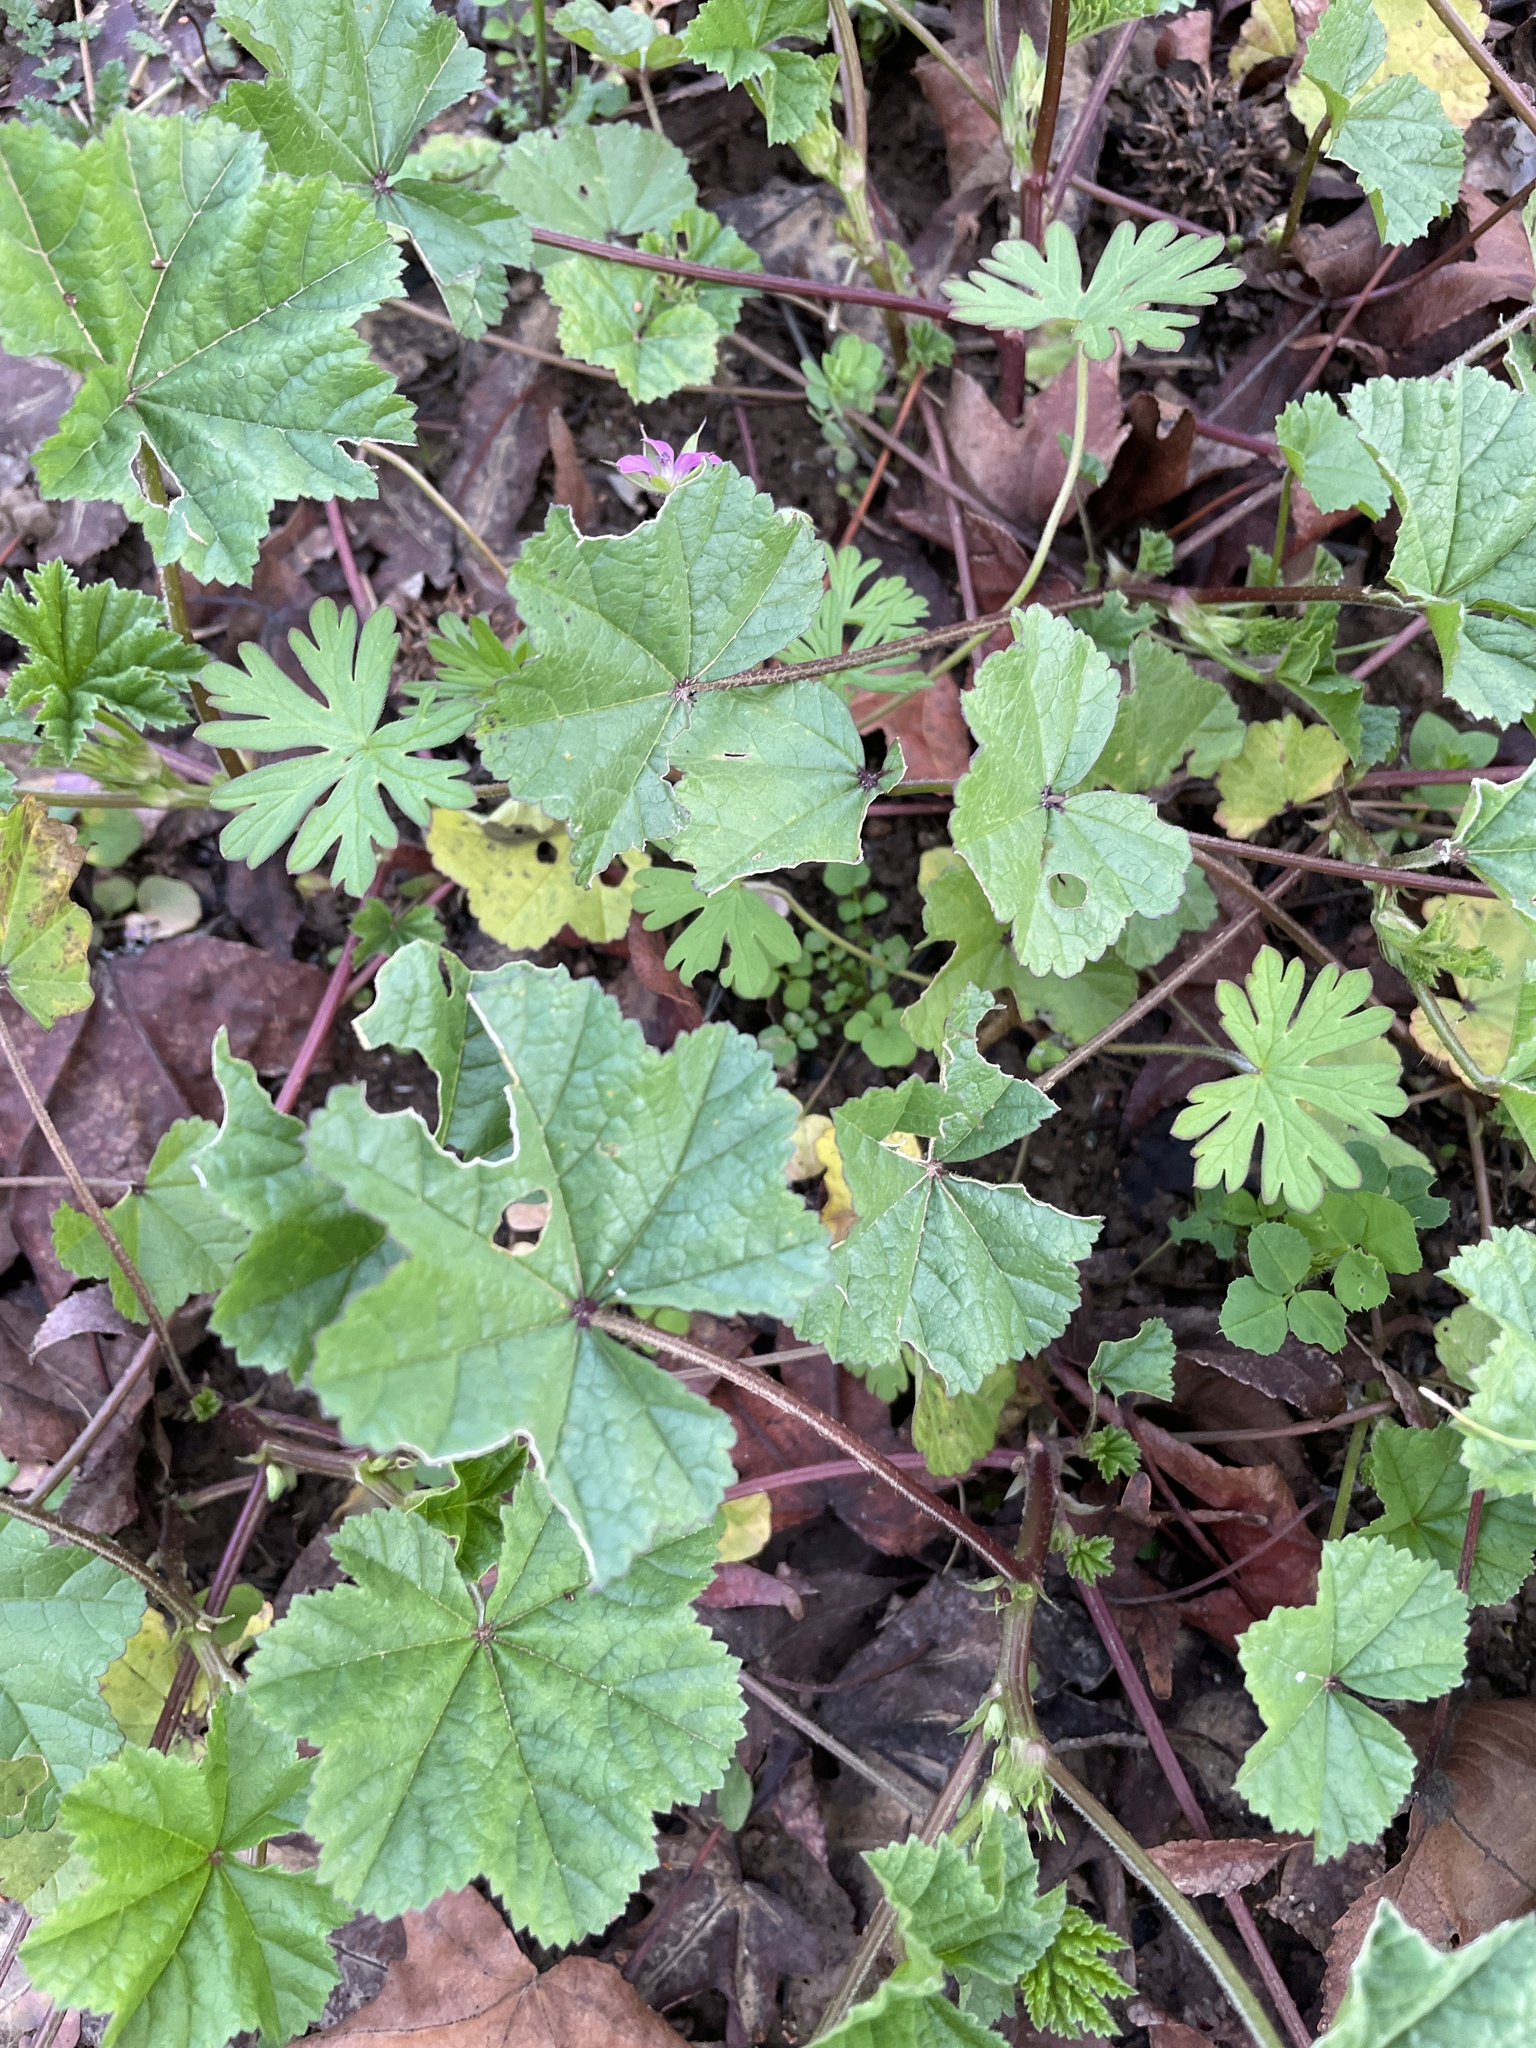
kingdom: Plantae
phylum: Tracheophyta
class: Magnoliopsida
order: Malvales
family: Malvaceae
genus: Malva
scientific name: Malva
